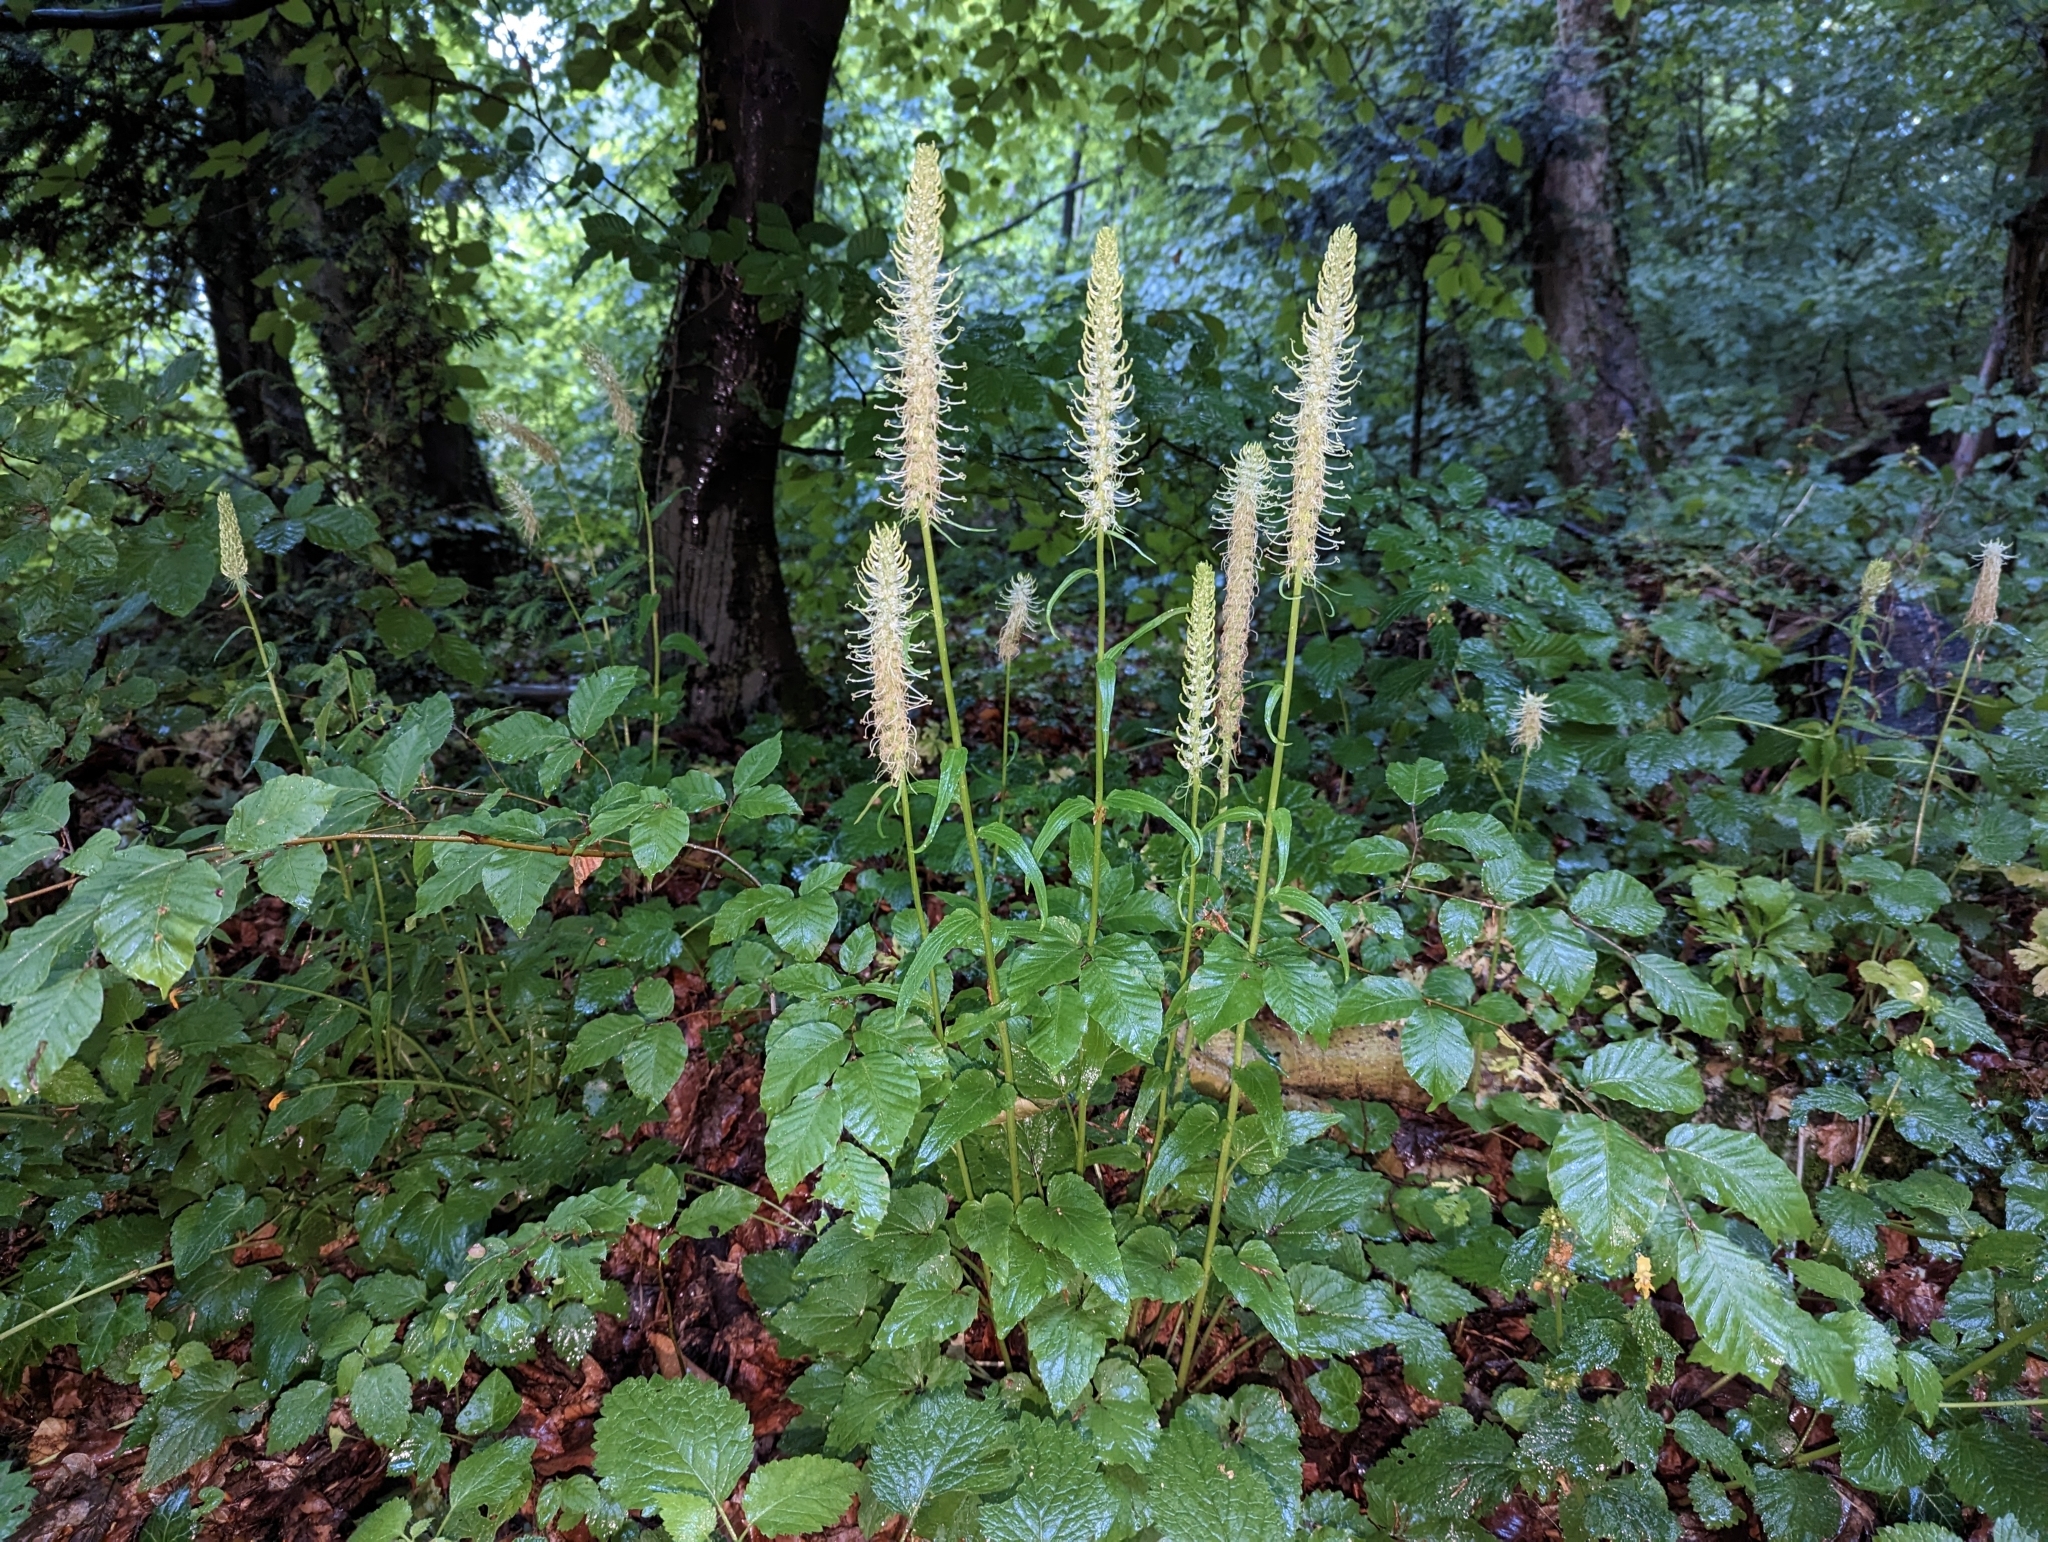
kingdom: Plantae
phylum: Tracheophyta
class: Magnoliopsida
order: Asterales
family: Campanulaceae
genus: Phyteuma
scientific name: Phyteuma spicatum
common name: Spiked rampion
